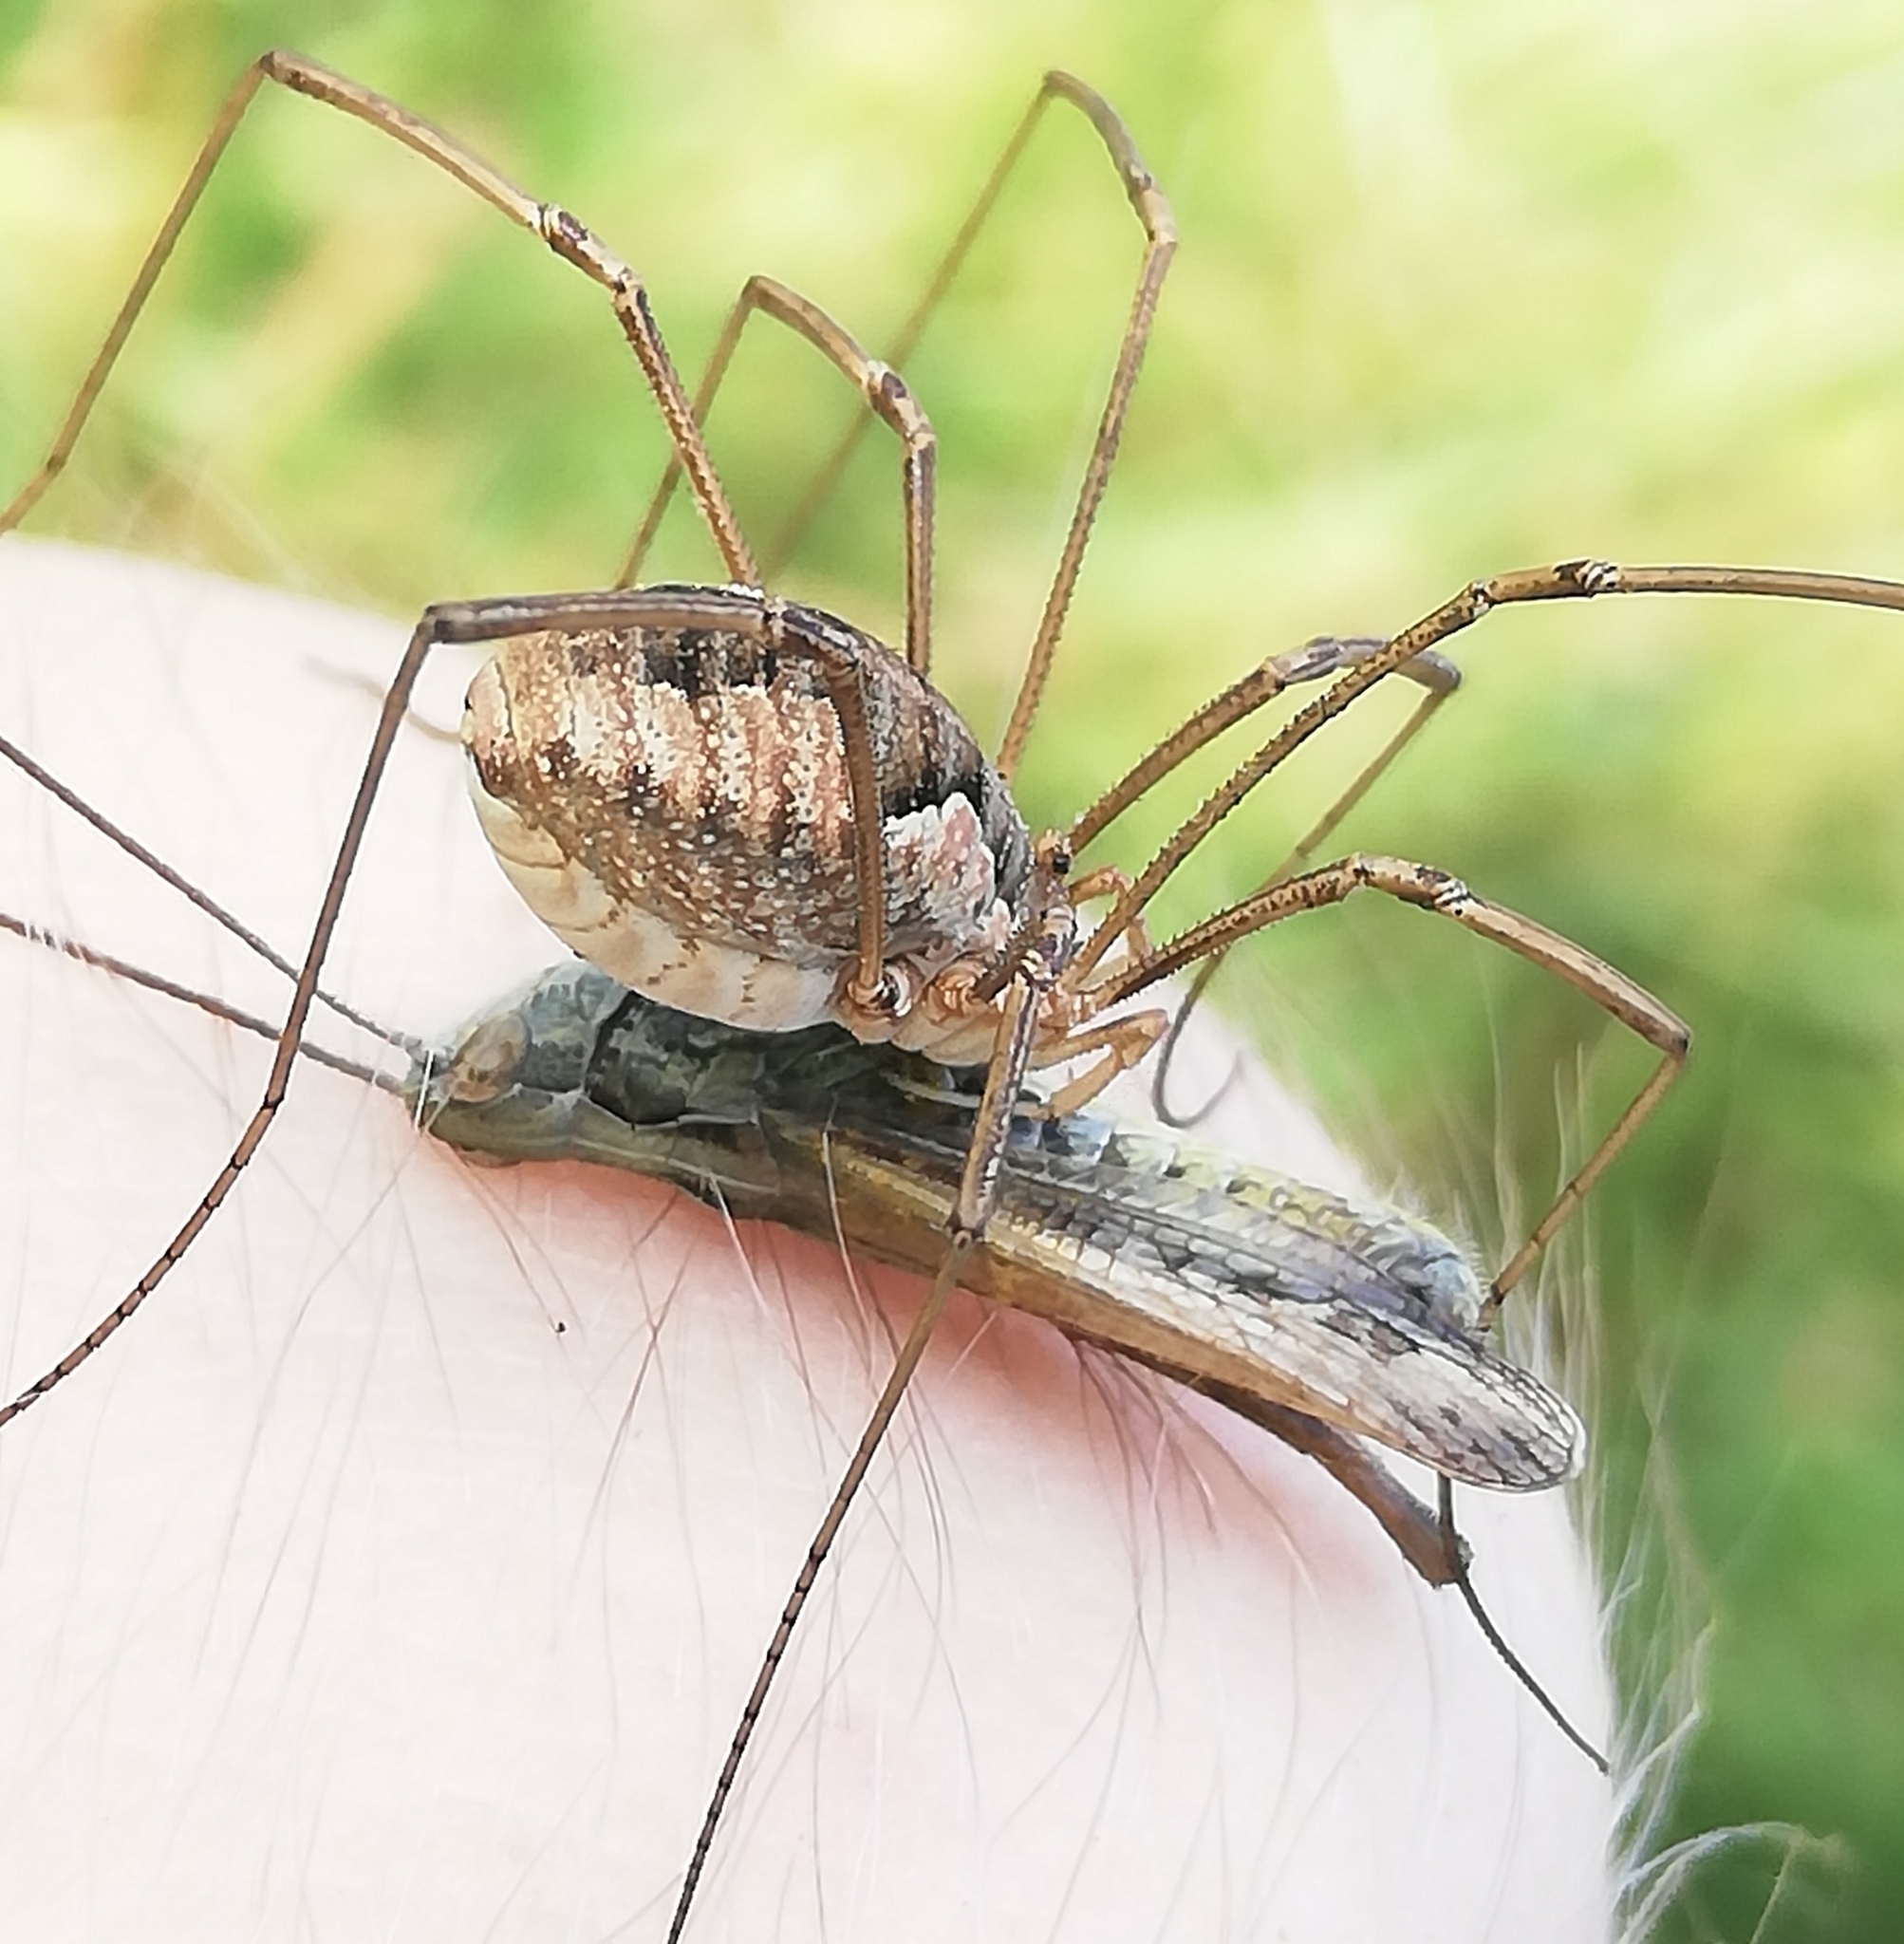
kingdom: Animalia
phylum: Arthropoda
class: Arachnida
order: Opiliones
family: Phalangiidae
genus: Phalangium
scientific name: Phalangium opilio
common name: Daddy longleg
